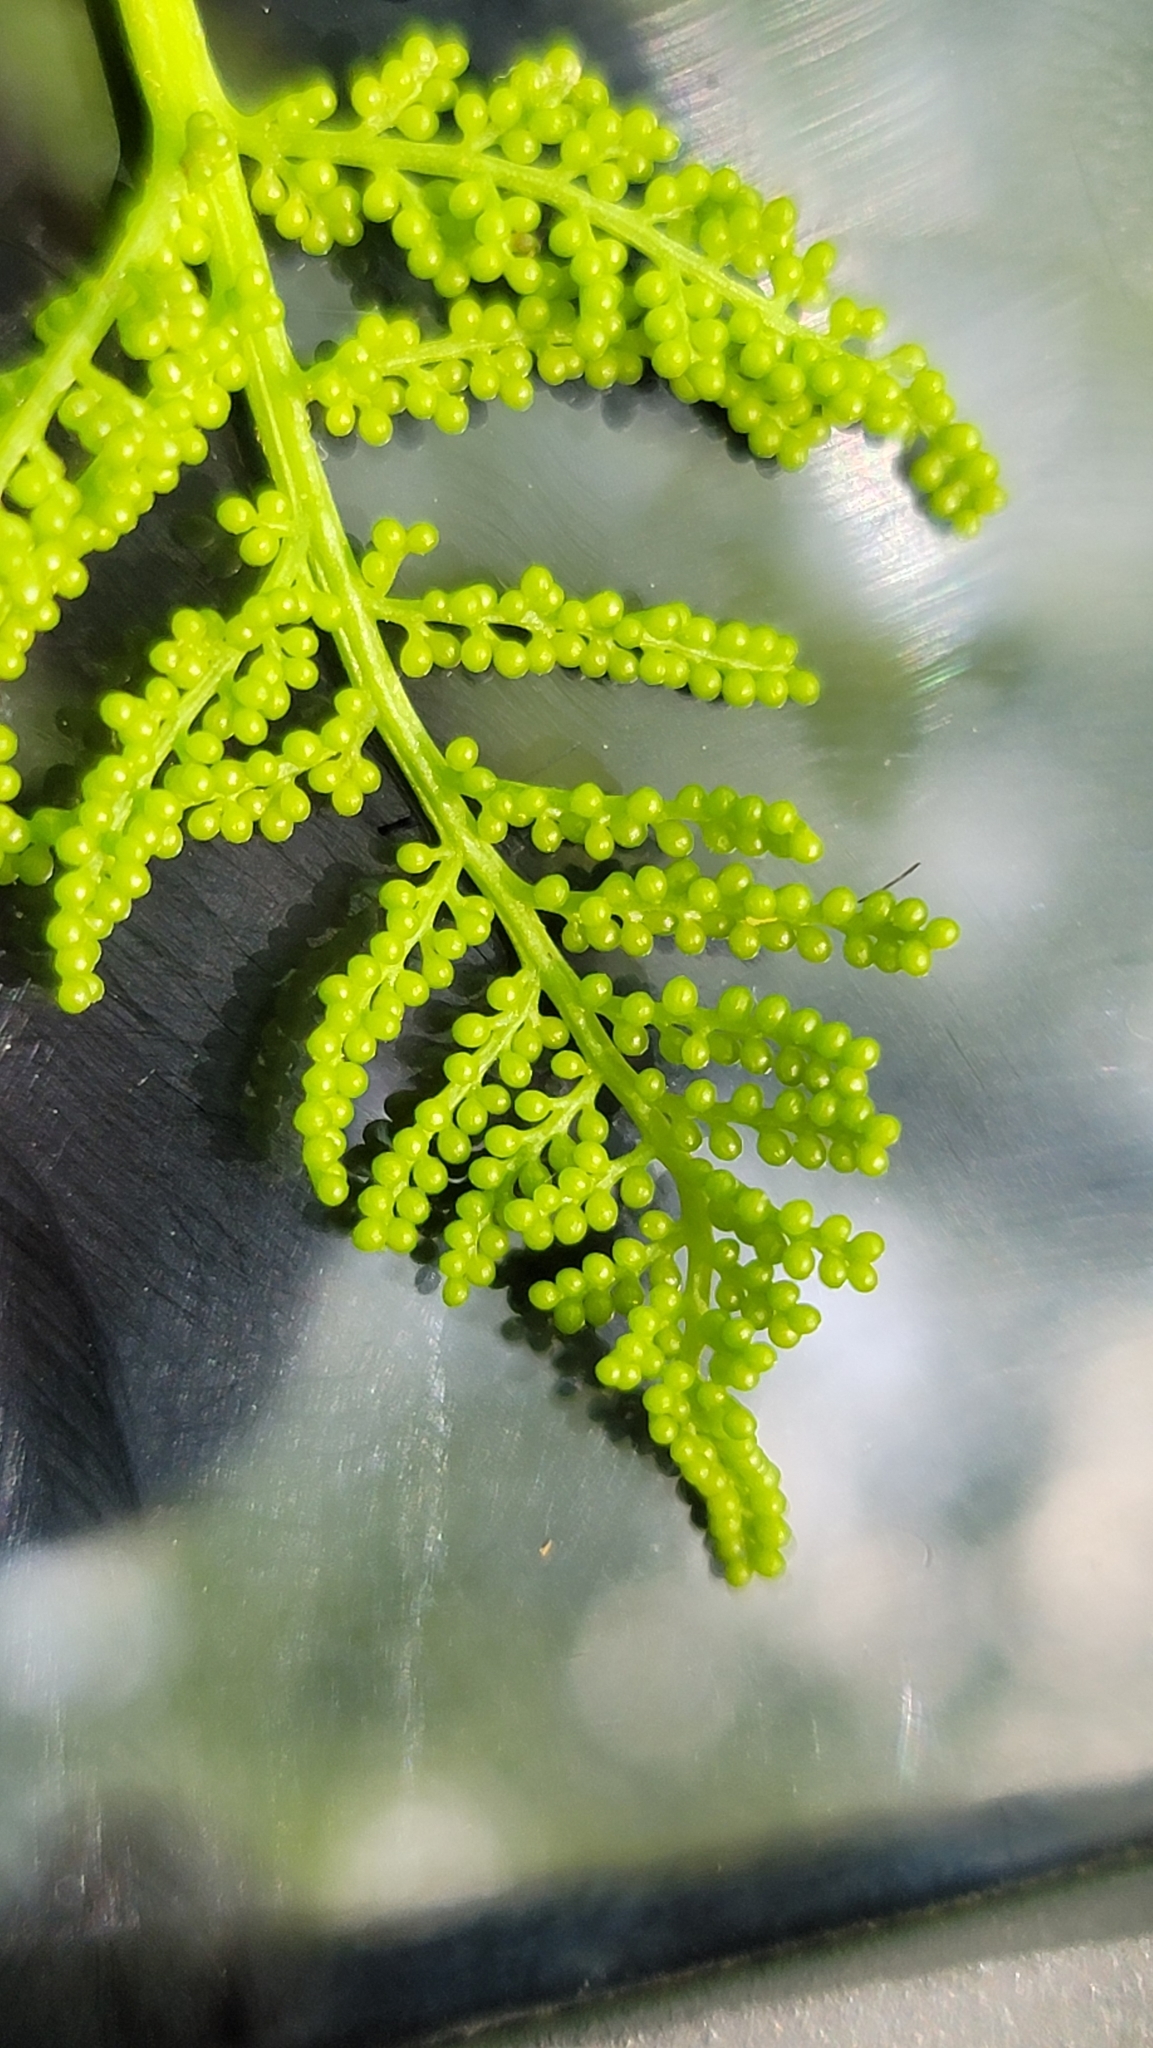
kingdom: Plantae
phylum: Tracheophyta
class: Polypodiopsida
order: Ophioglossales
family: Ophioglossaceae
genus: Botrypus
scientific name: Botrypus virginianus
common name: Common grapefern
